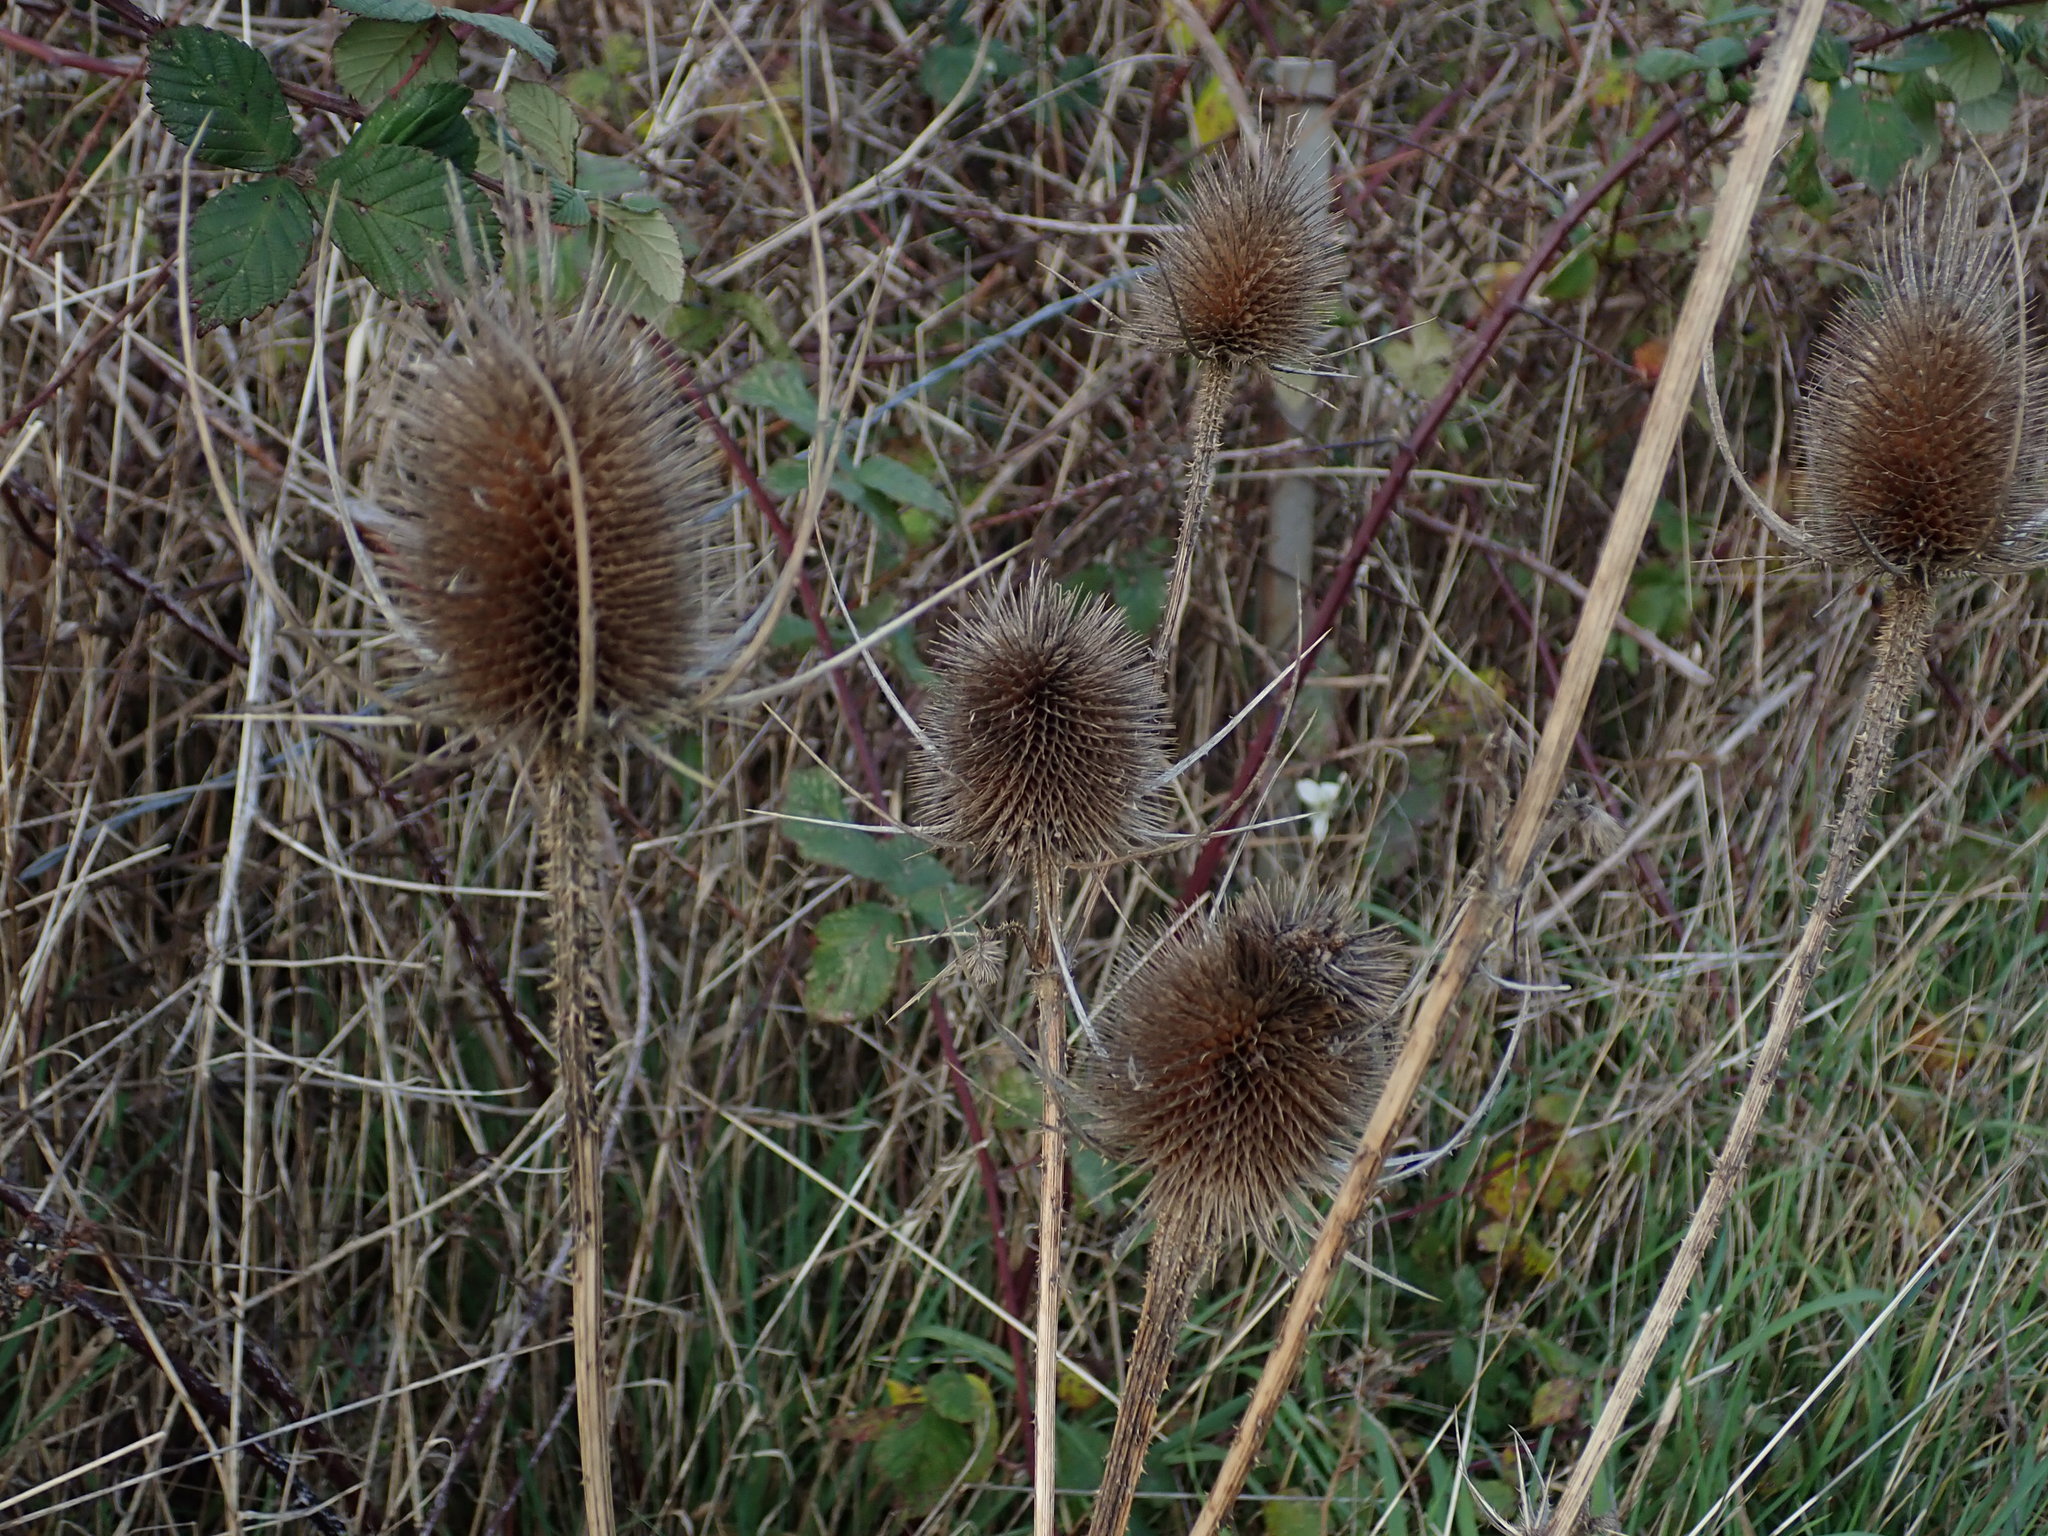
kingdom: Plantae
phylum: Tracheophyta
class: Magnoliopsida
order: Dipsacales
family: Caprifoliaceae
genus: Dipsacus
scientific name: Dipsacus fullonum
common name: Teasel
